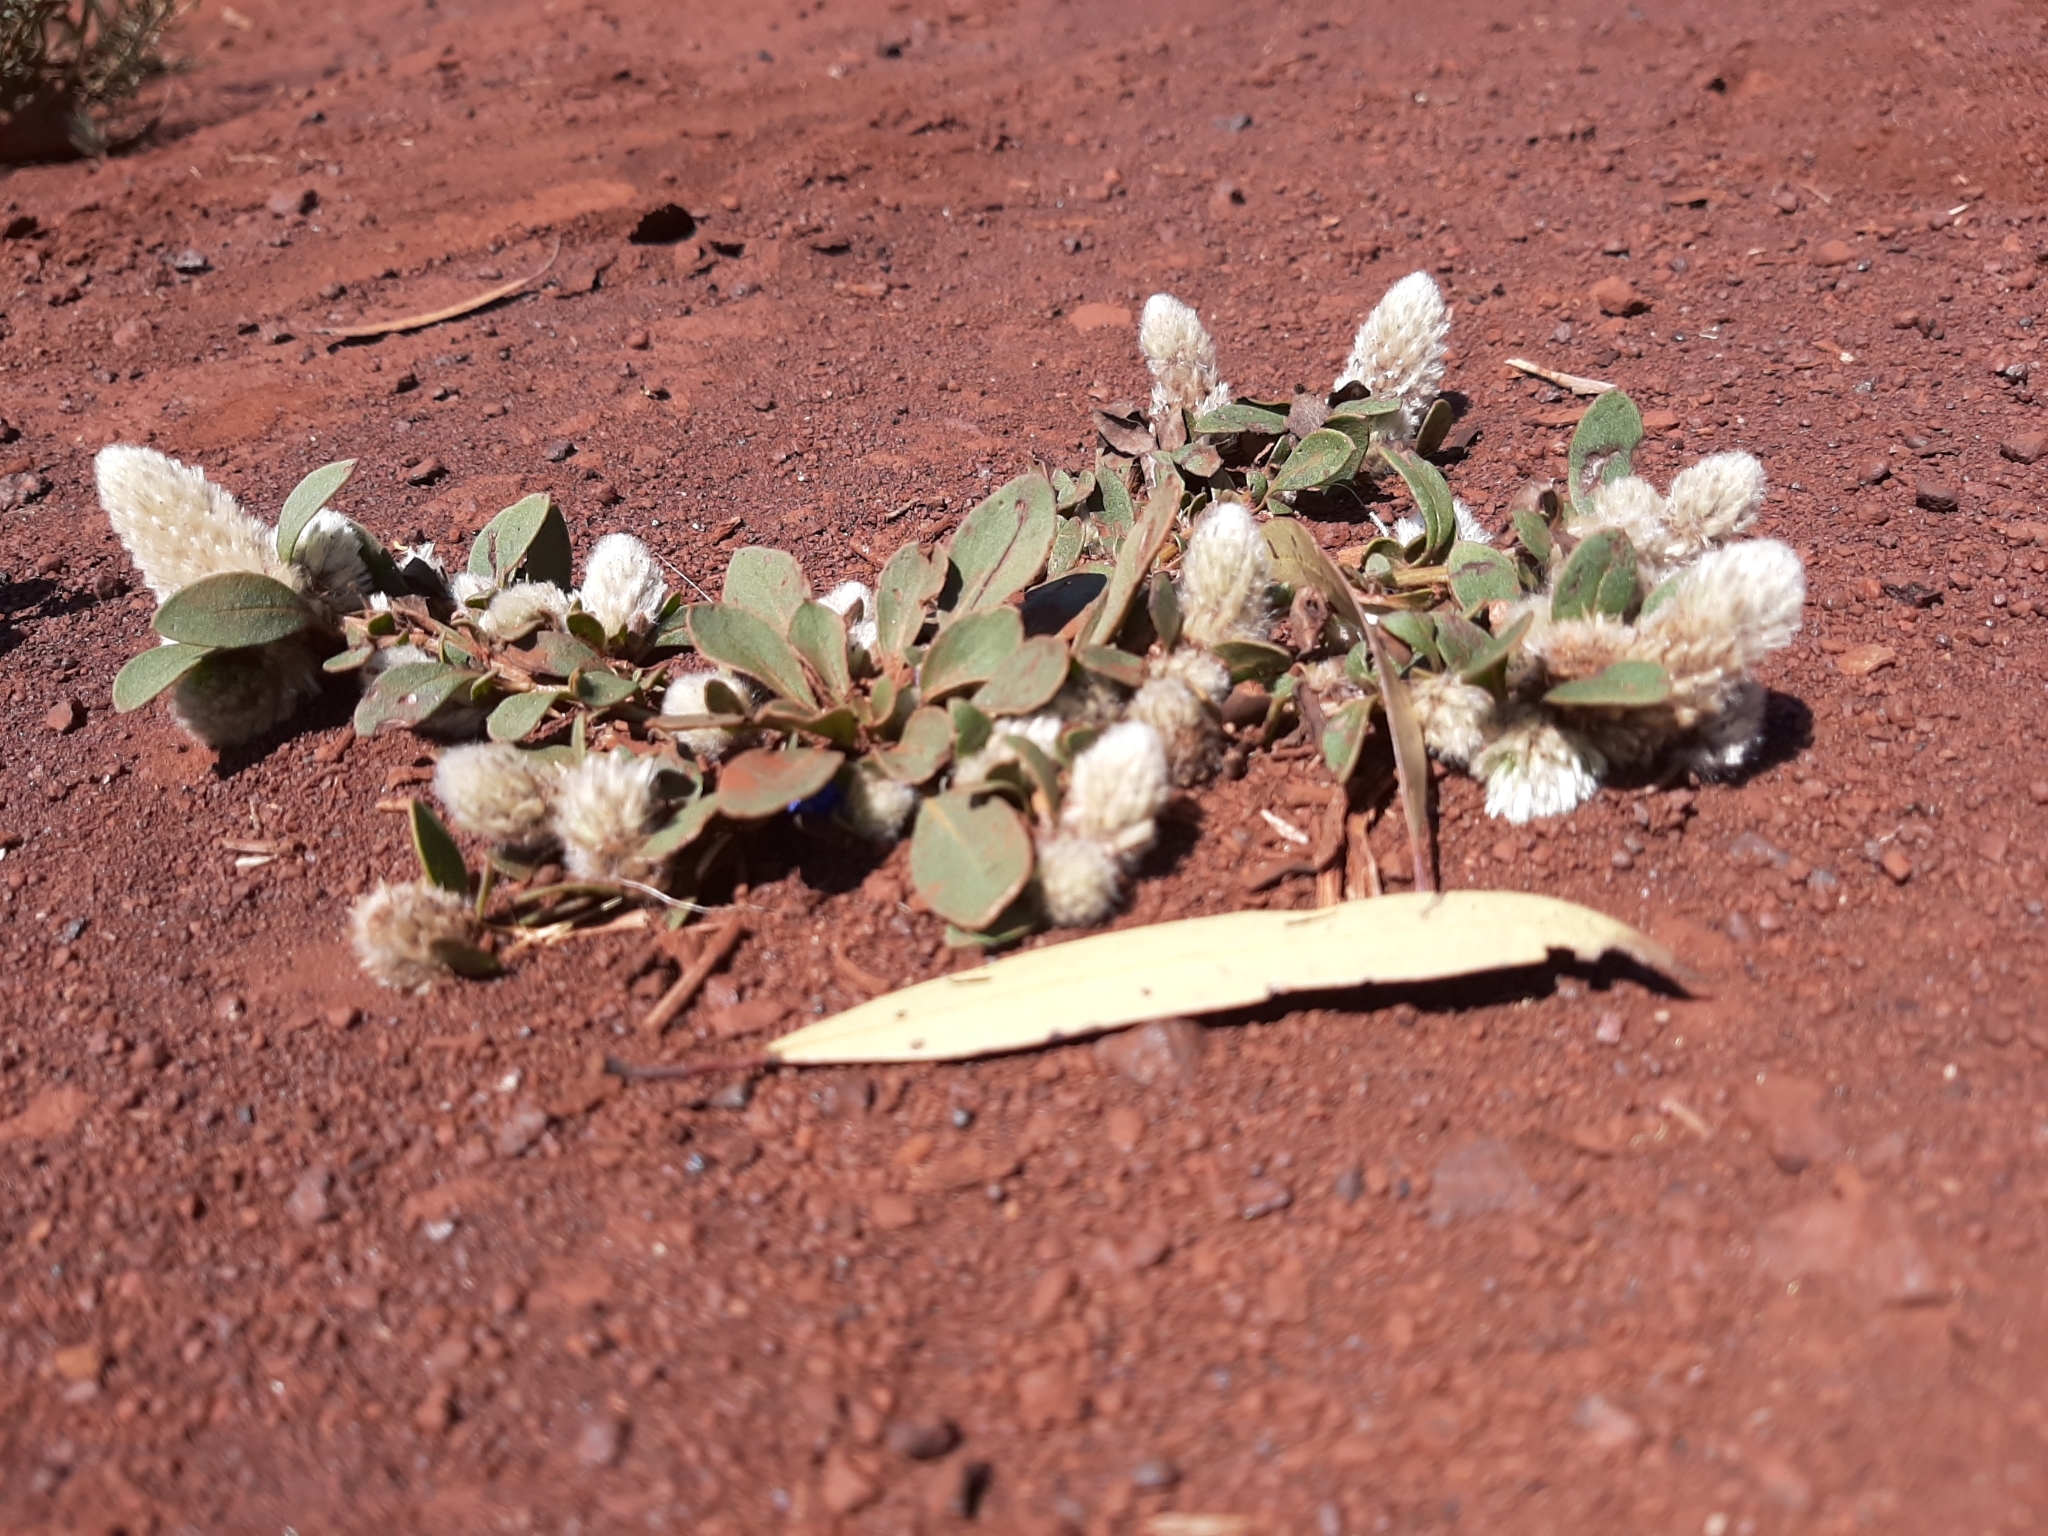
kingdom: Plantae
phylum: Tracheophyta
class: Magnoliopsida
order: Caryophyllales
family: Amaranthaceae
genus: Ptilotus
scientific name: Ptilotus holosericeus
